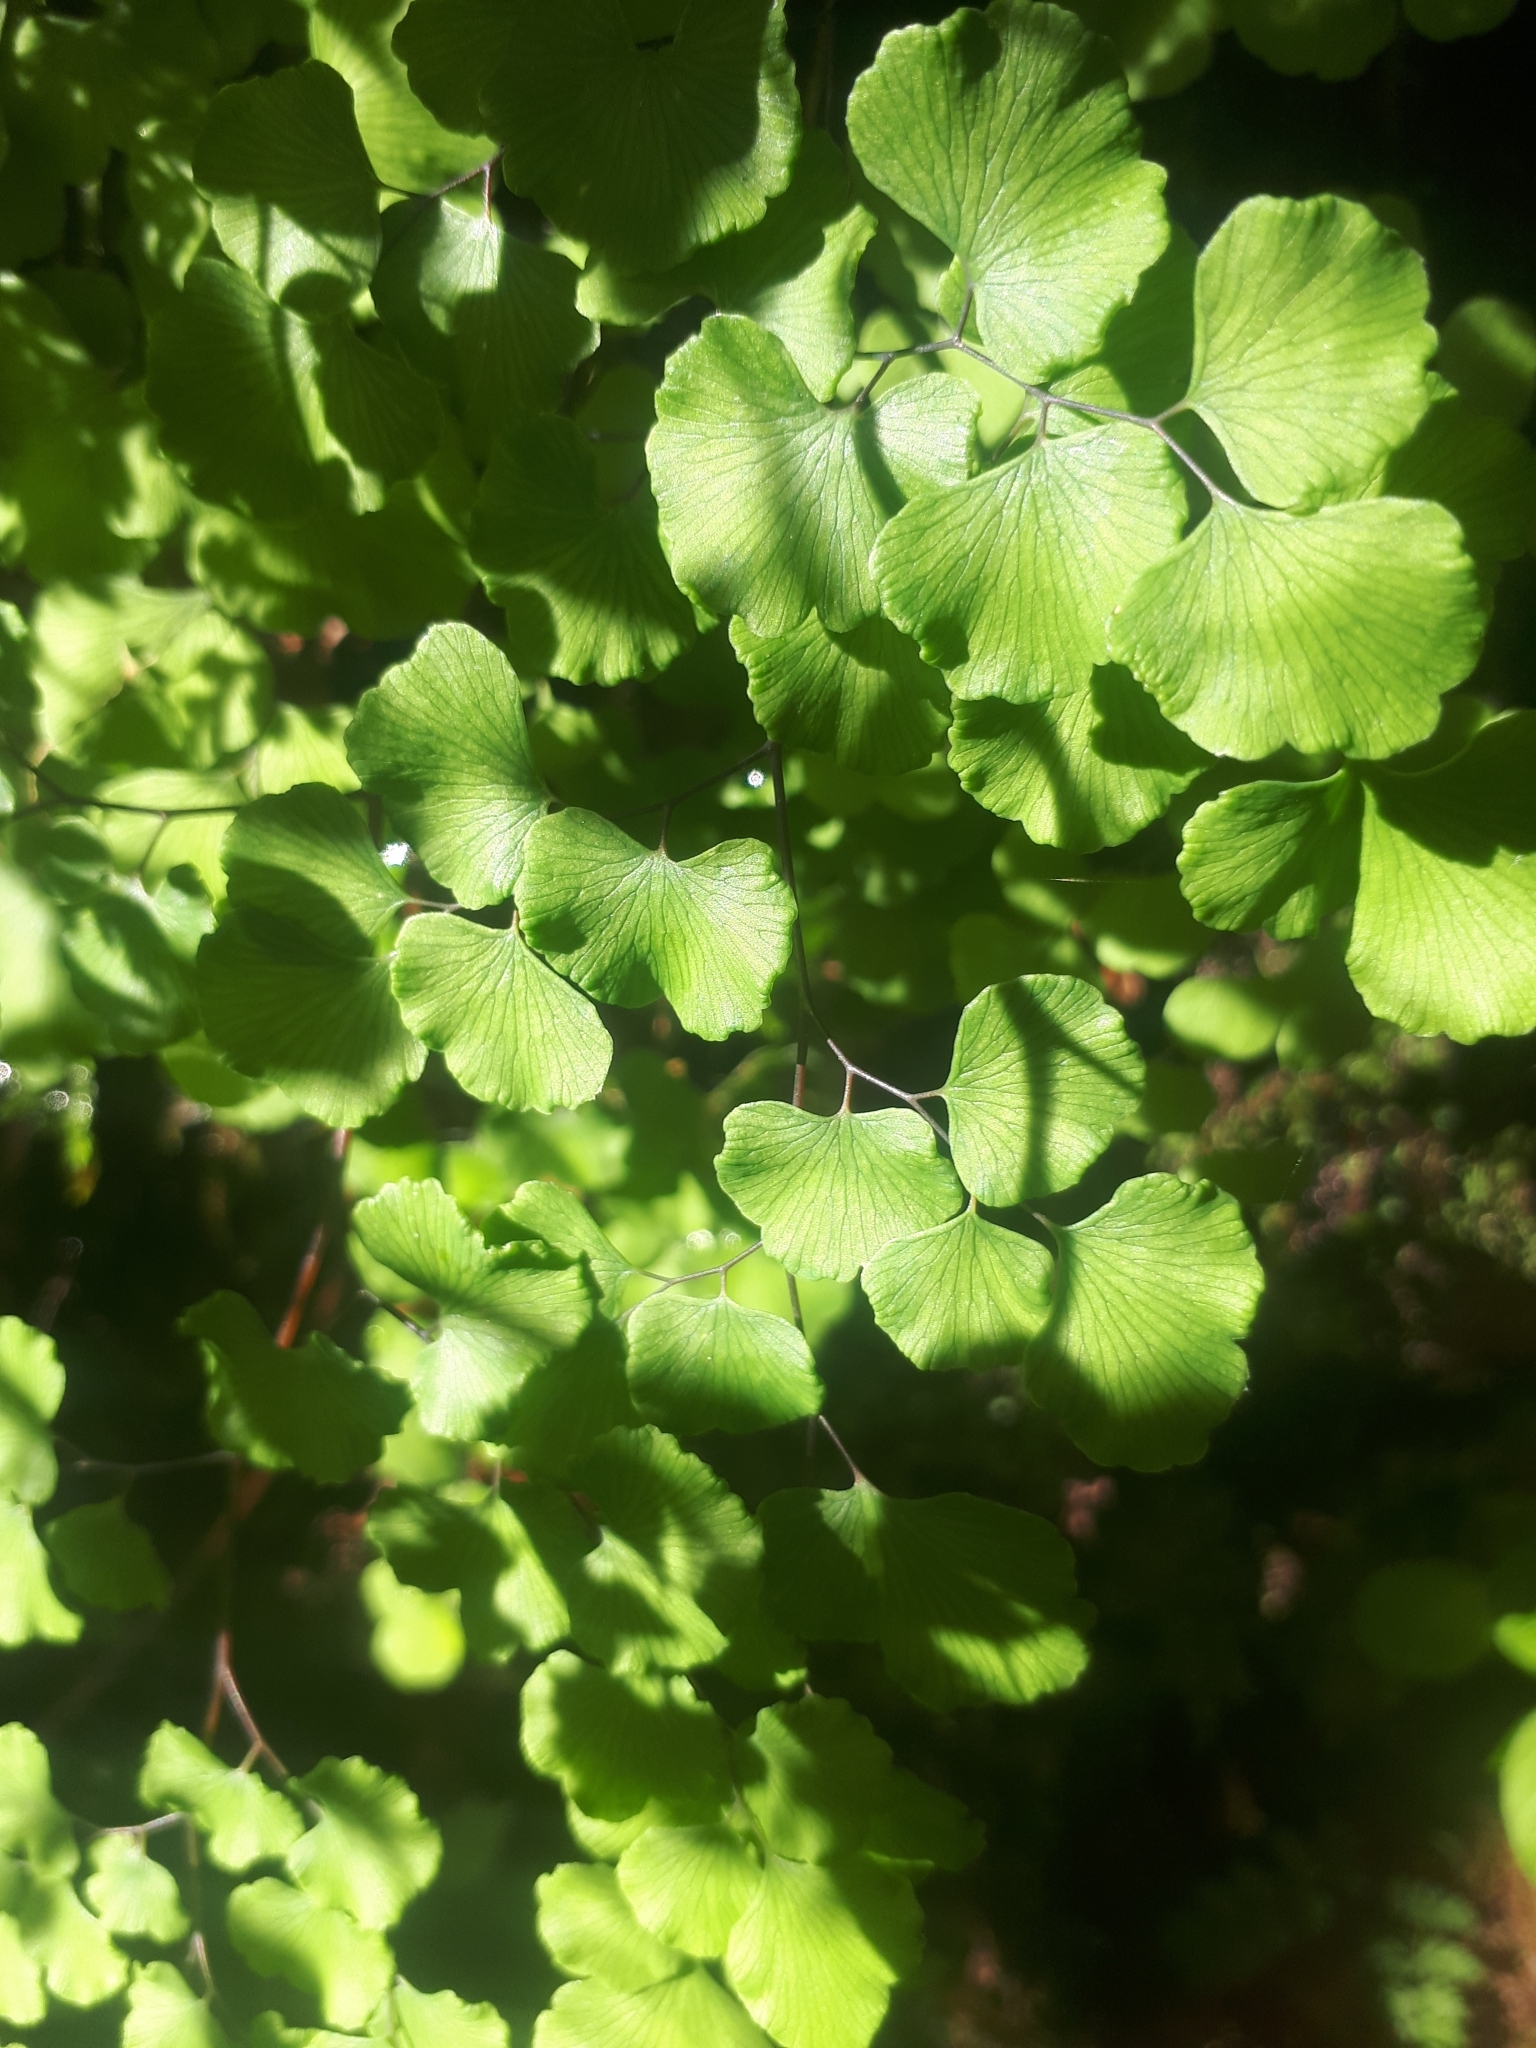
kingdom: Plantae
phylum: Tracheophyta
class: Polypodiopsida
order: Polypodiales
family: Pteridaceae
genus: Adiantum
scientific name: Adiantum chilense
